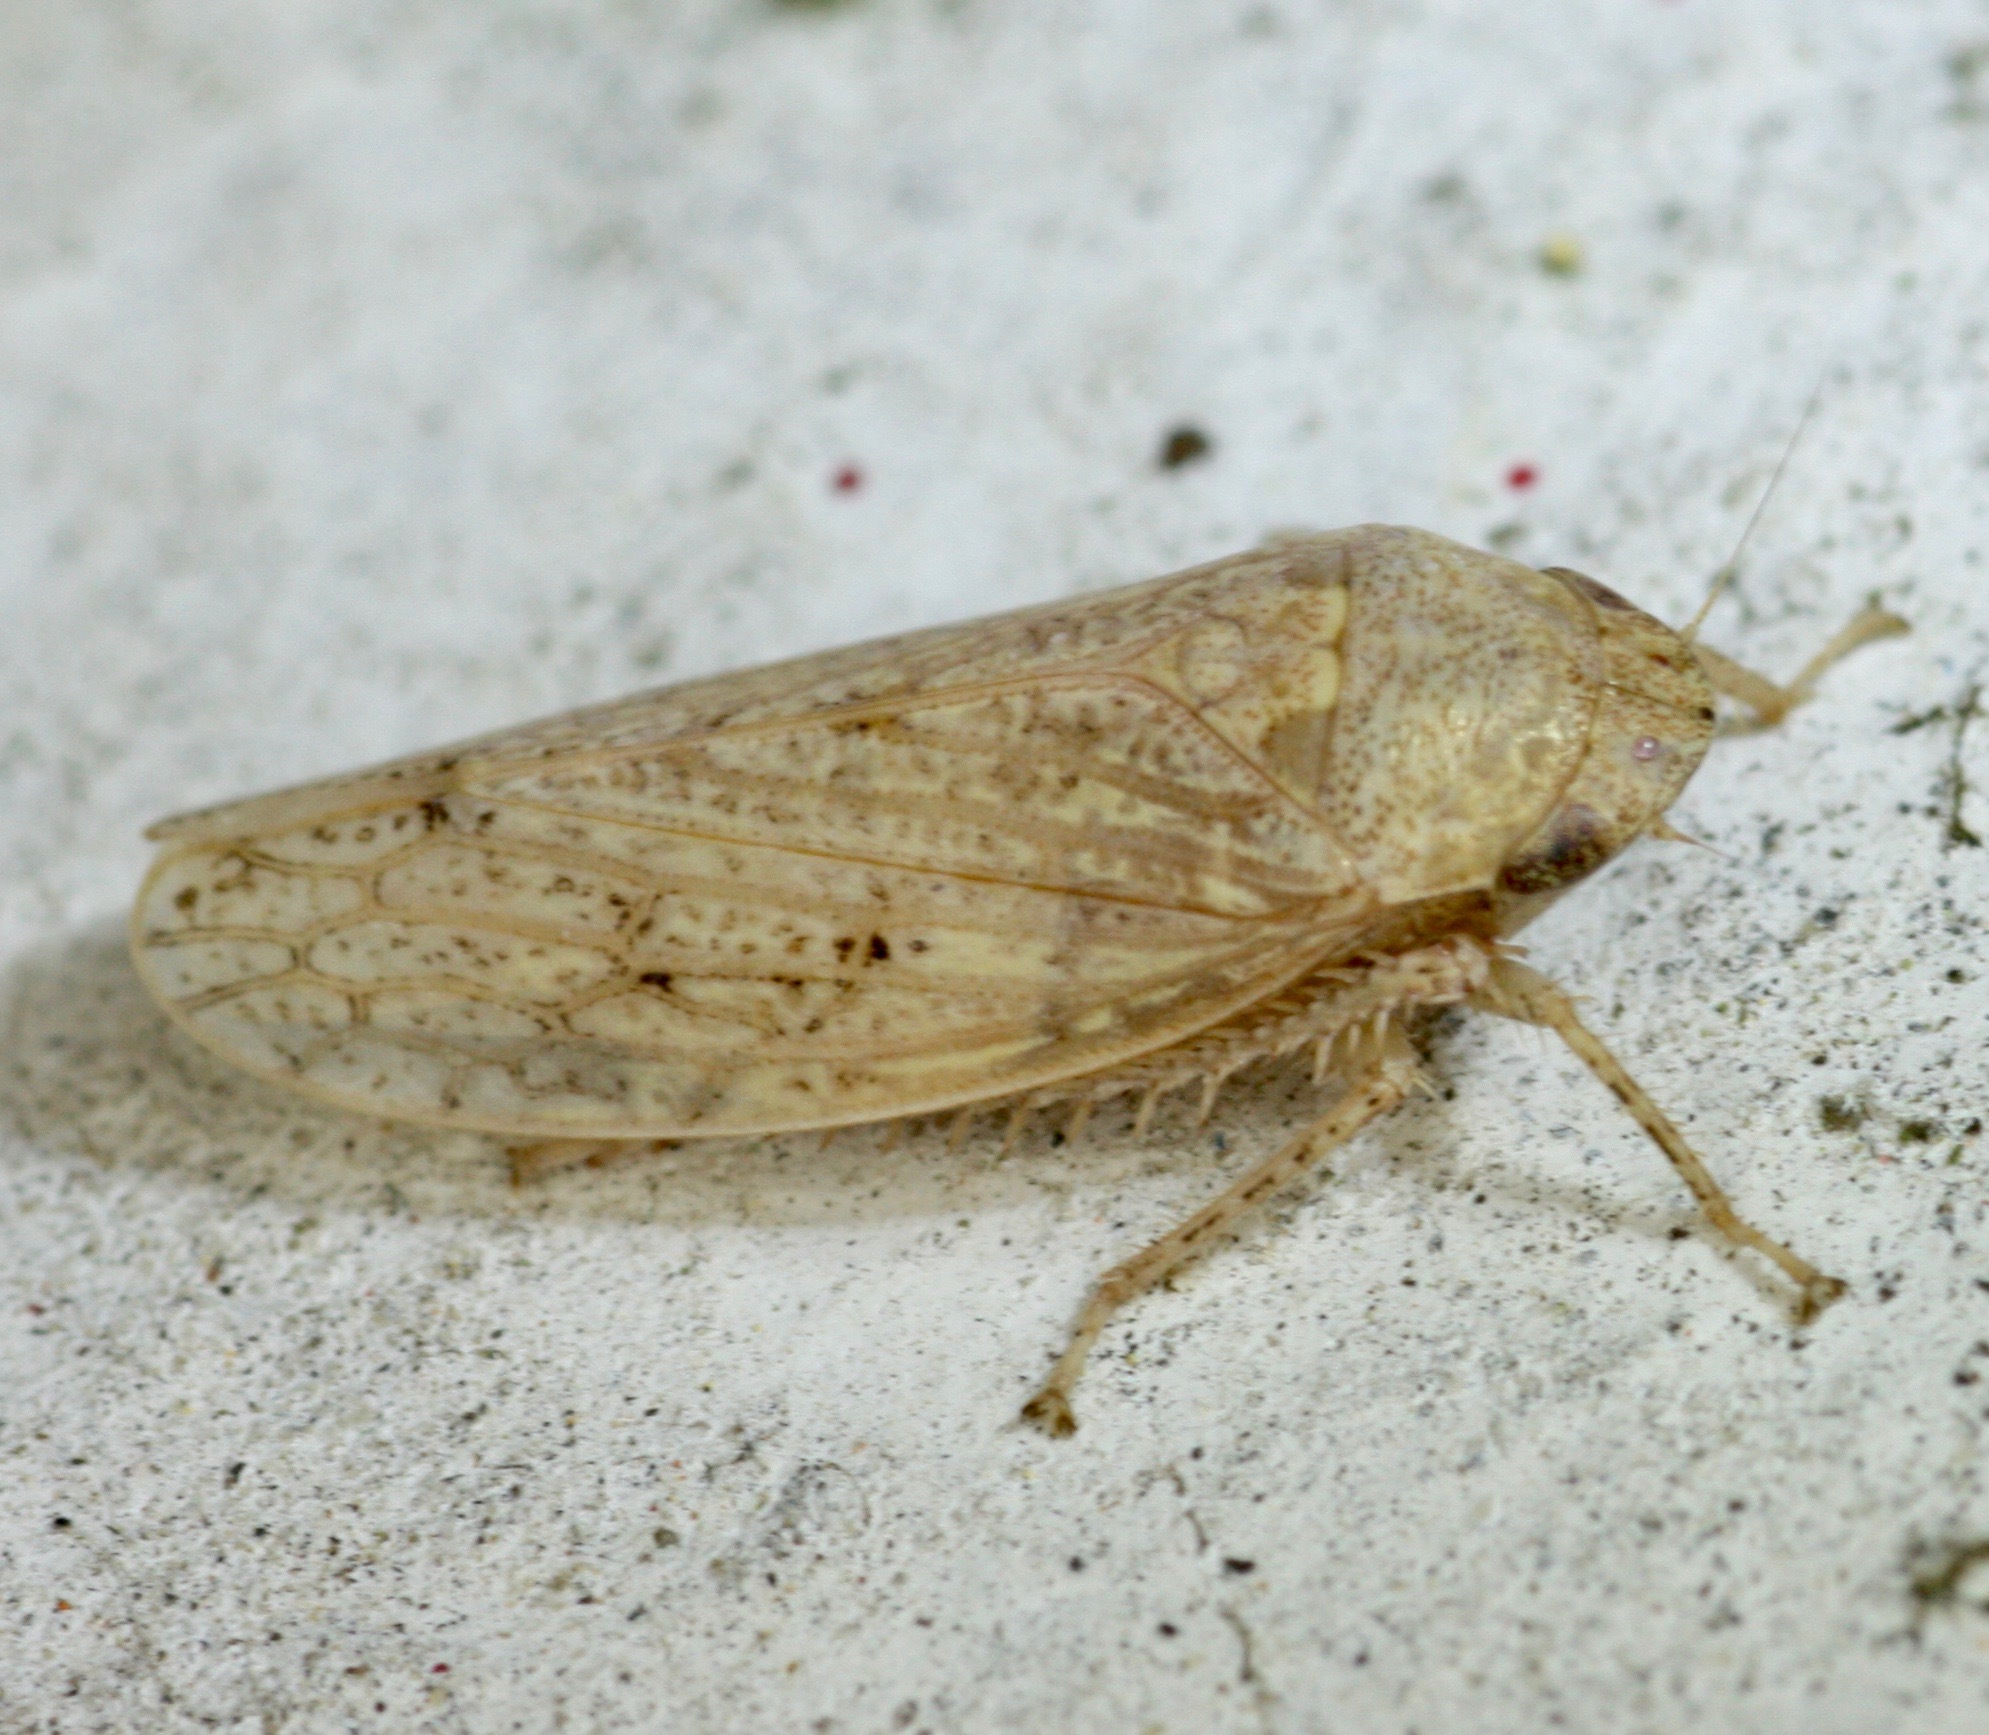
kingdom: Animalia
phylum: Arthropoda
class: Insecta
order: Hemiptera
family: Cicadellidae
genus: Curtara
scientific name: Curtara insularis
